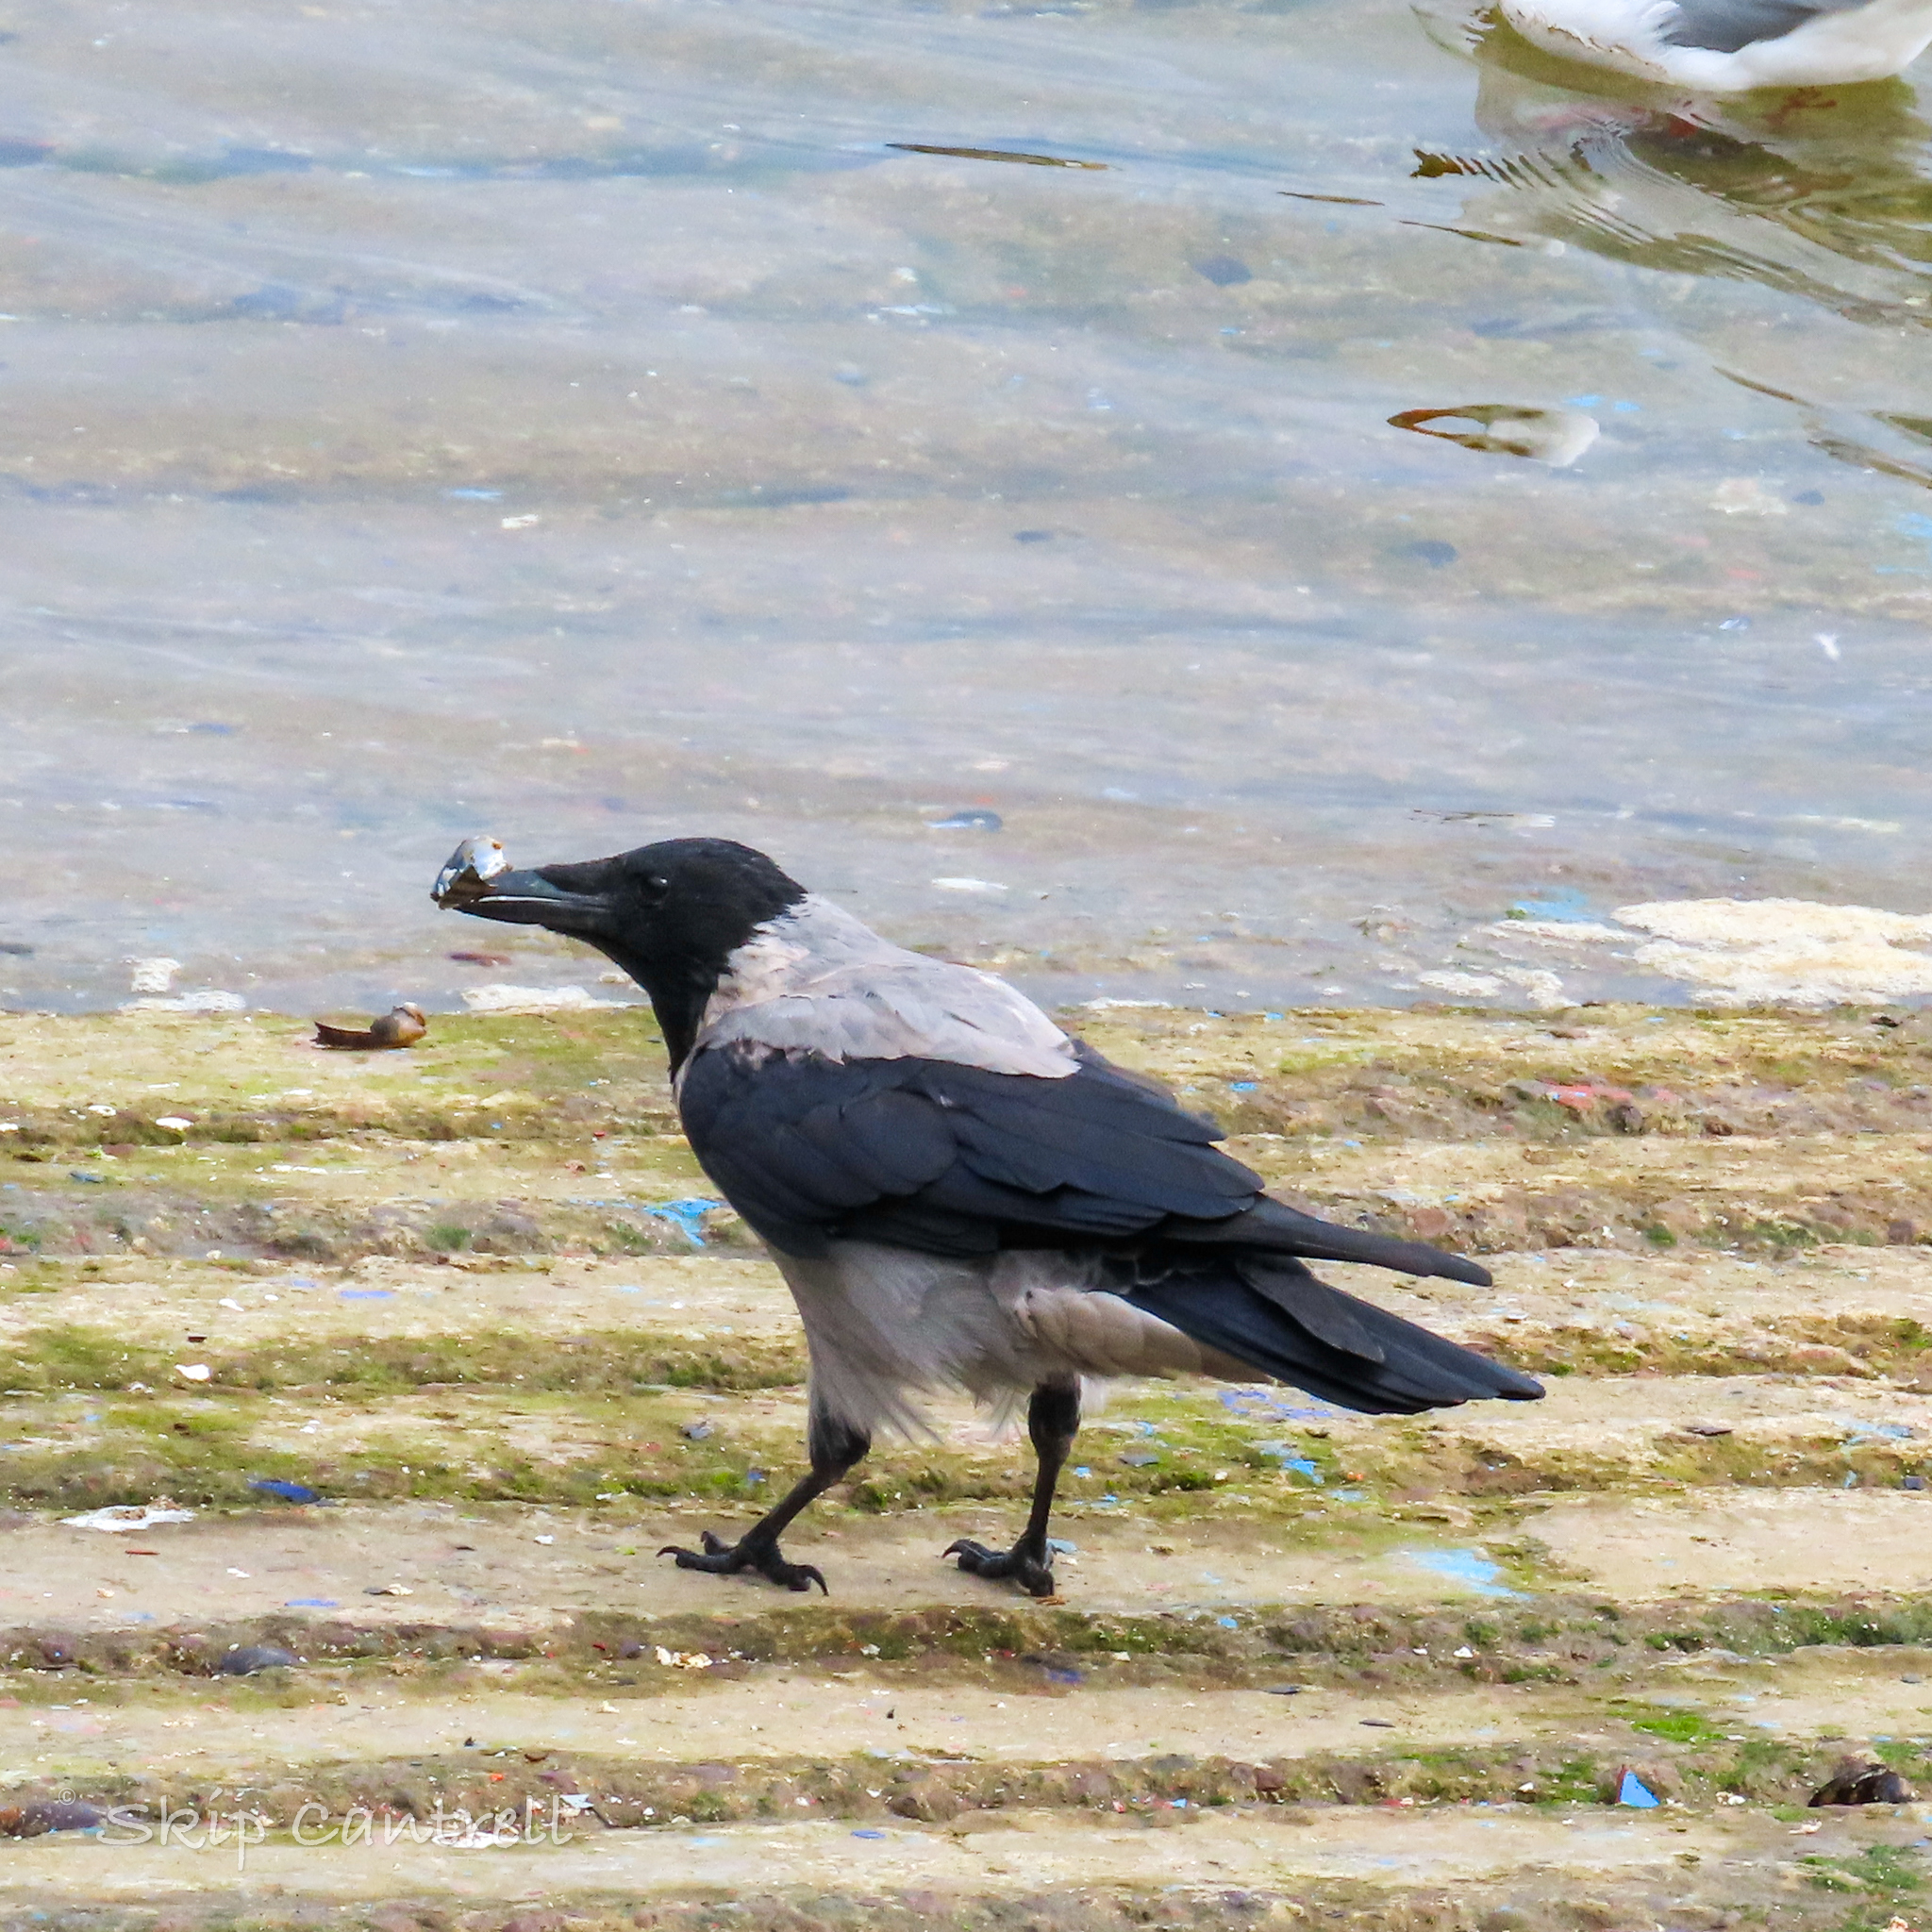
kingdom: Animalia
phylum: Chordata
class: Aves
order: Passeriformes
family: Corvidae
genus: Corvus
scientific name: Corvus cornix
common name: Hooded crow
